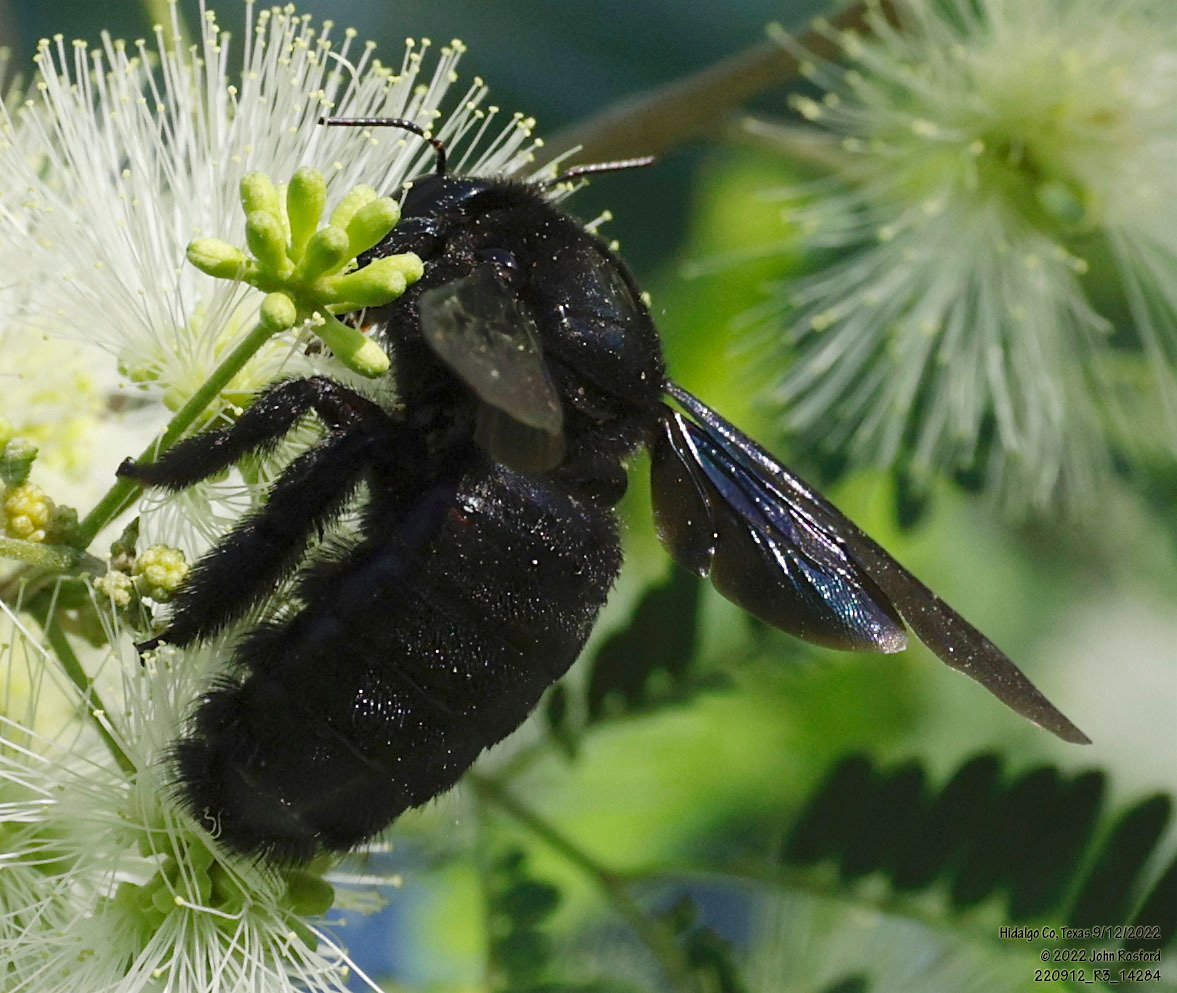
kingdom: Animalia
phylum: Arthropoda
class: Insecta
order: Hymenoptera
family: Apidae
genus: Xylocopa
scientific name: Xylocopa griswoldi
